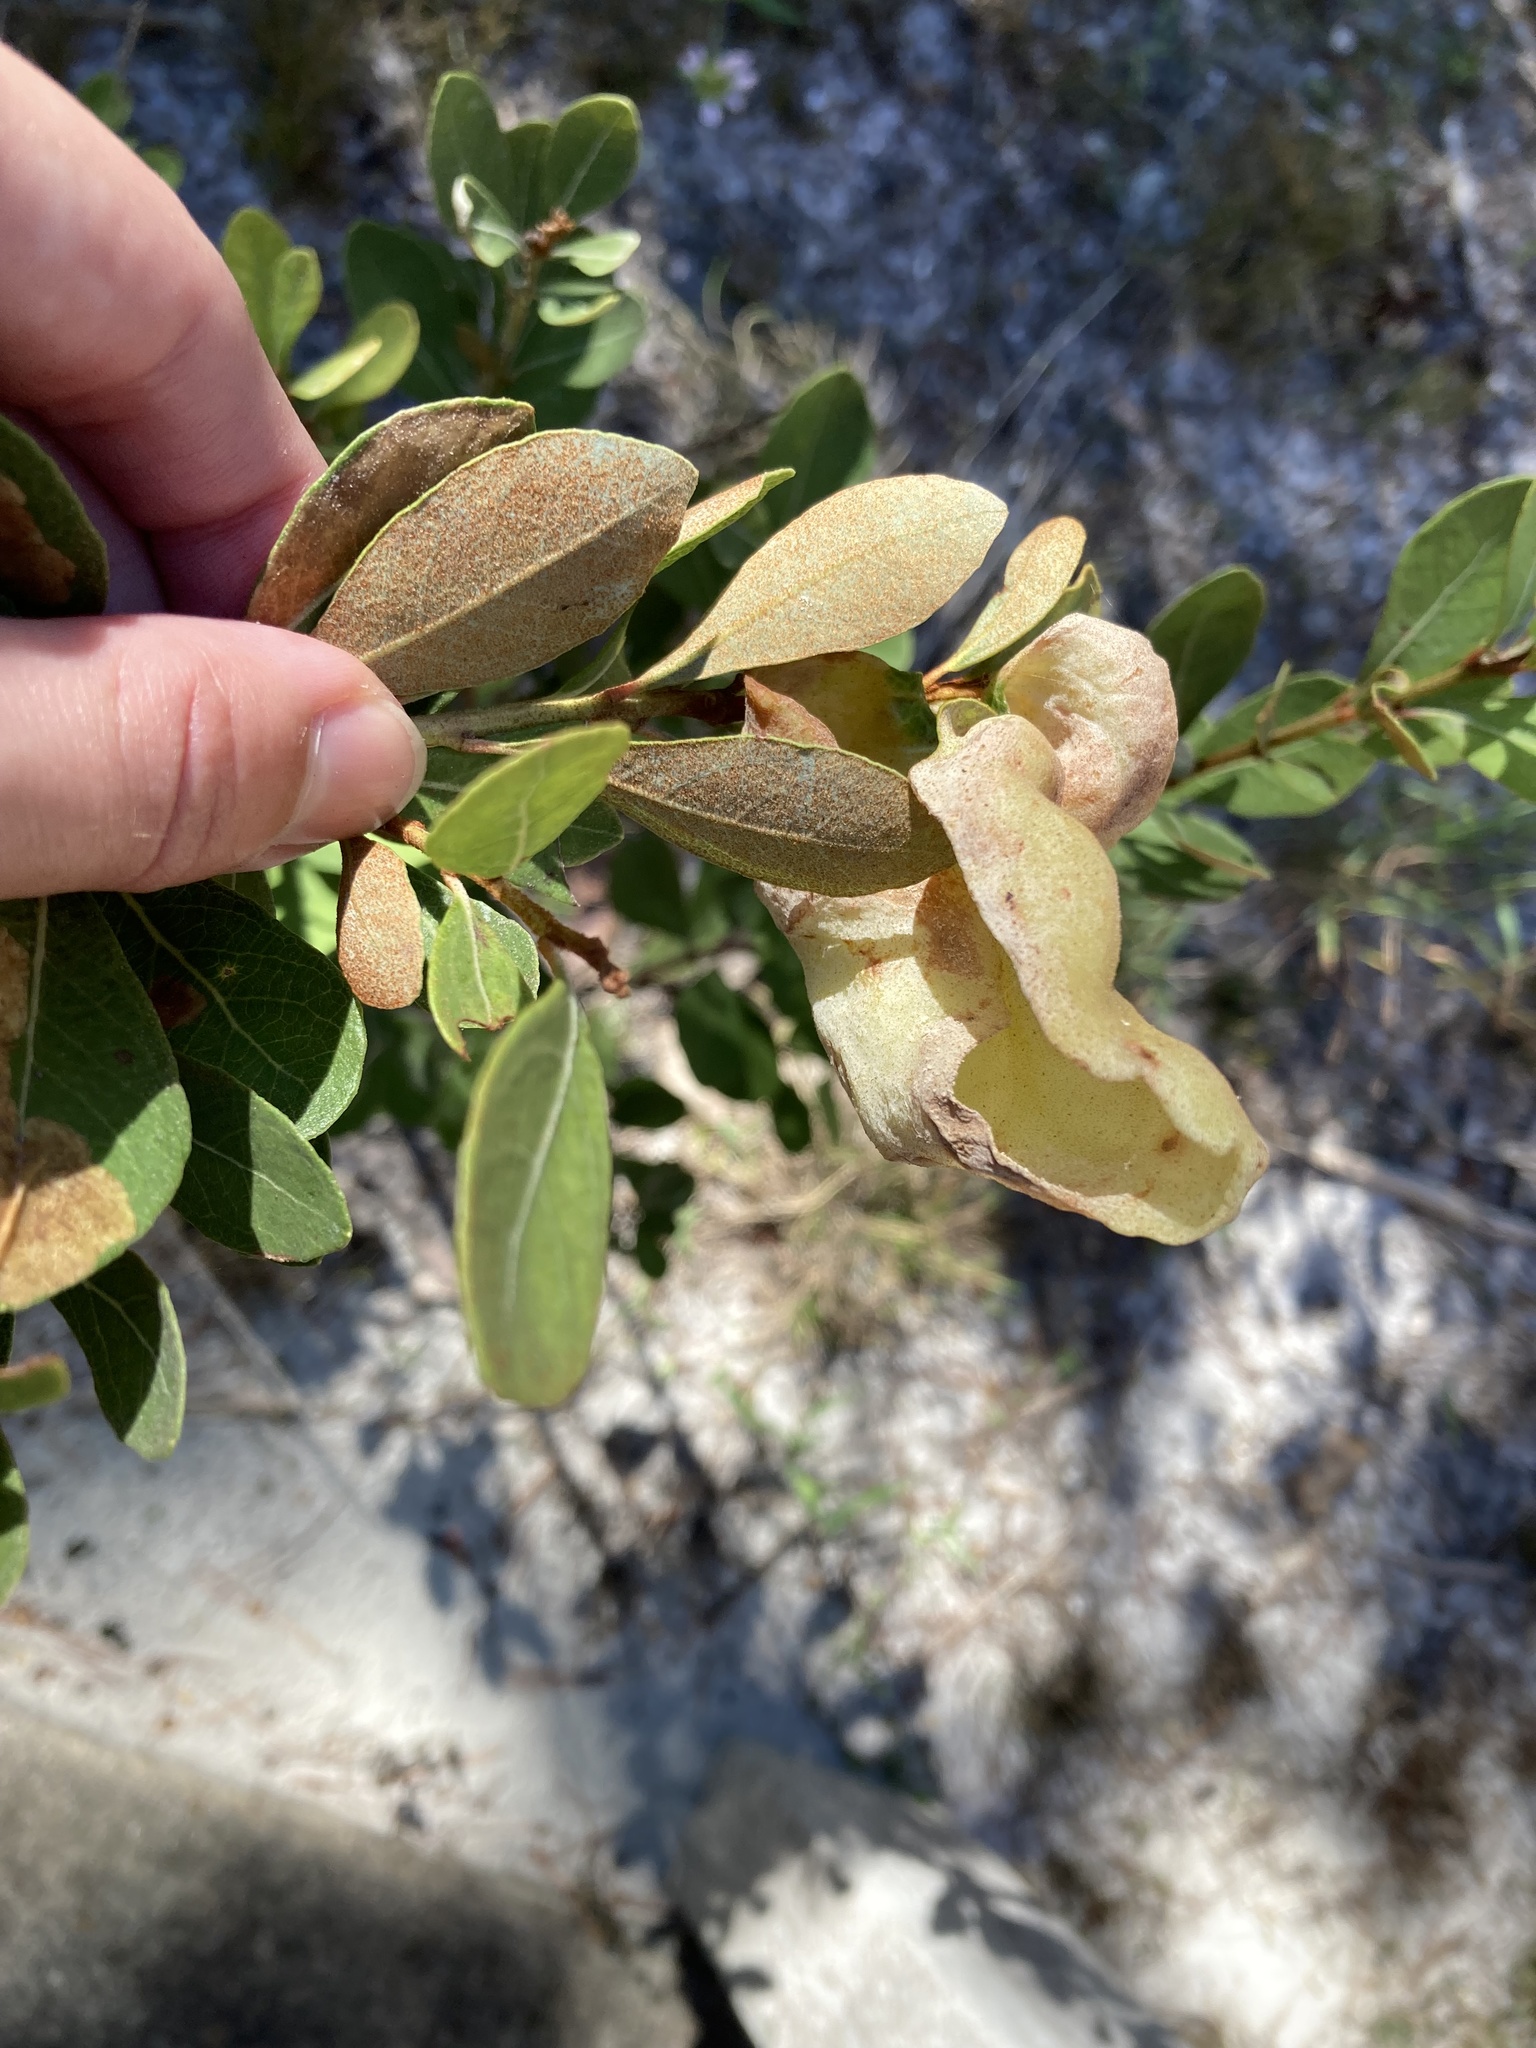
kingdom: Plantae
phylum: Tracheophyta
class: Magnoliopsida
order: Ericales
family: Ericaceae
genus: Lyonia
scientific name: Lyonia fruticosa
